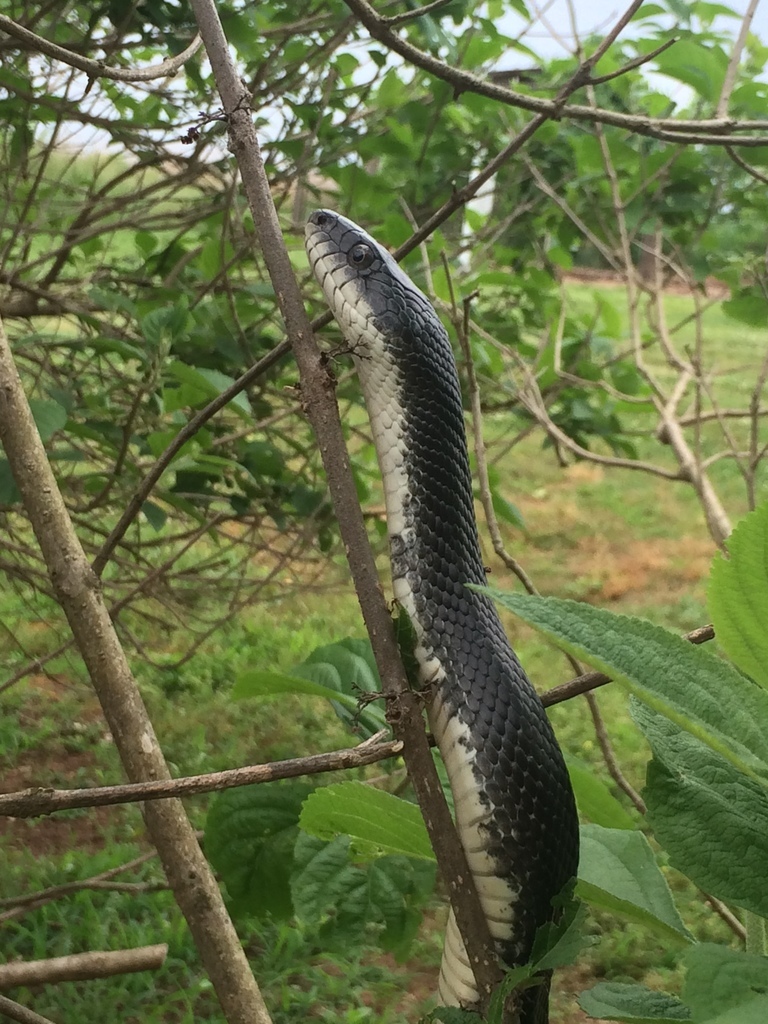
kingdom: Animalia
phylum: Chordata
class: Squamata
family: Colubridae
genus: Pantherophis
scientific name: Pantherophis alleghaniensis
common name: Eastern rat snake
